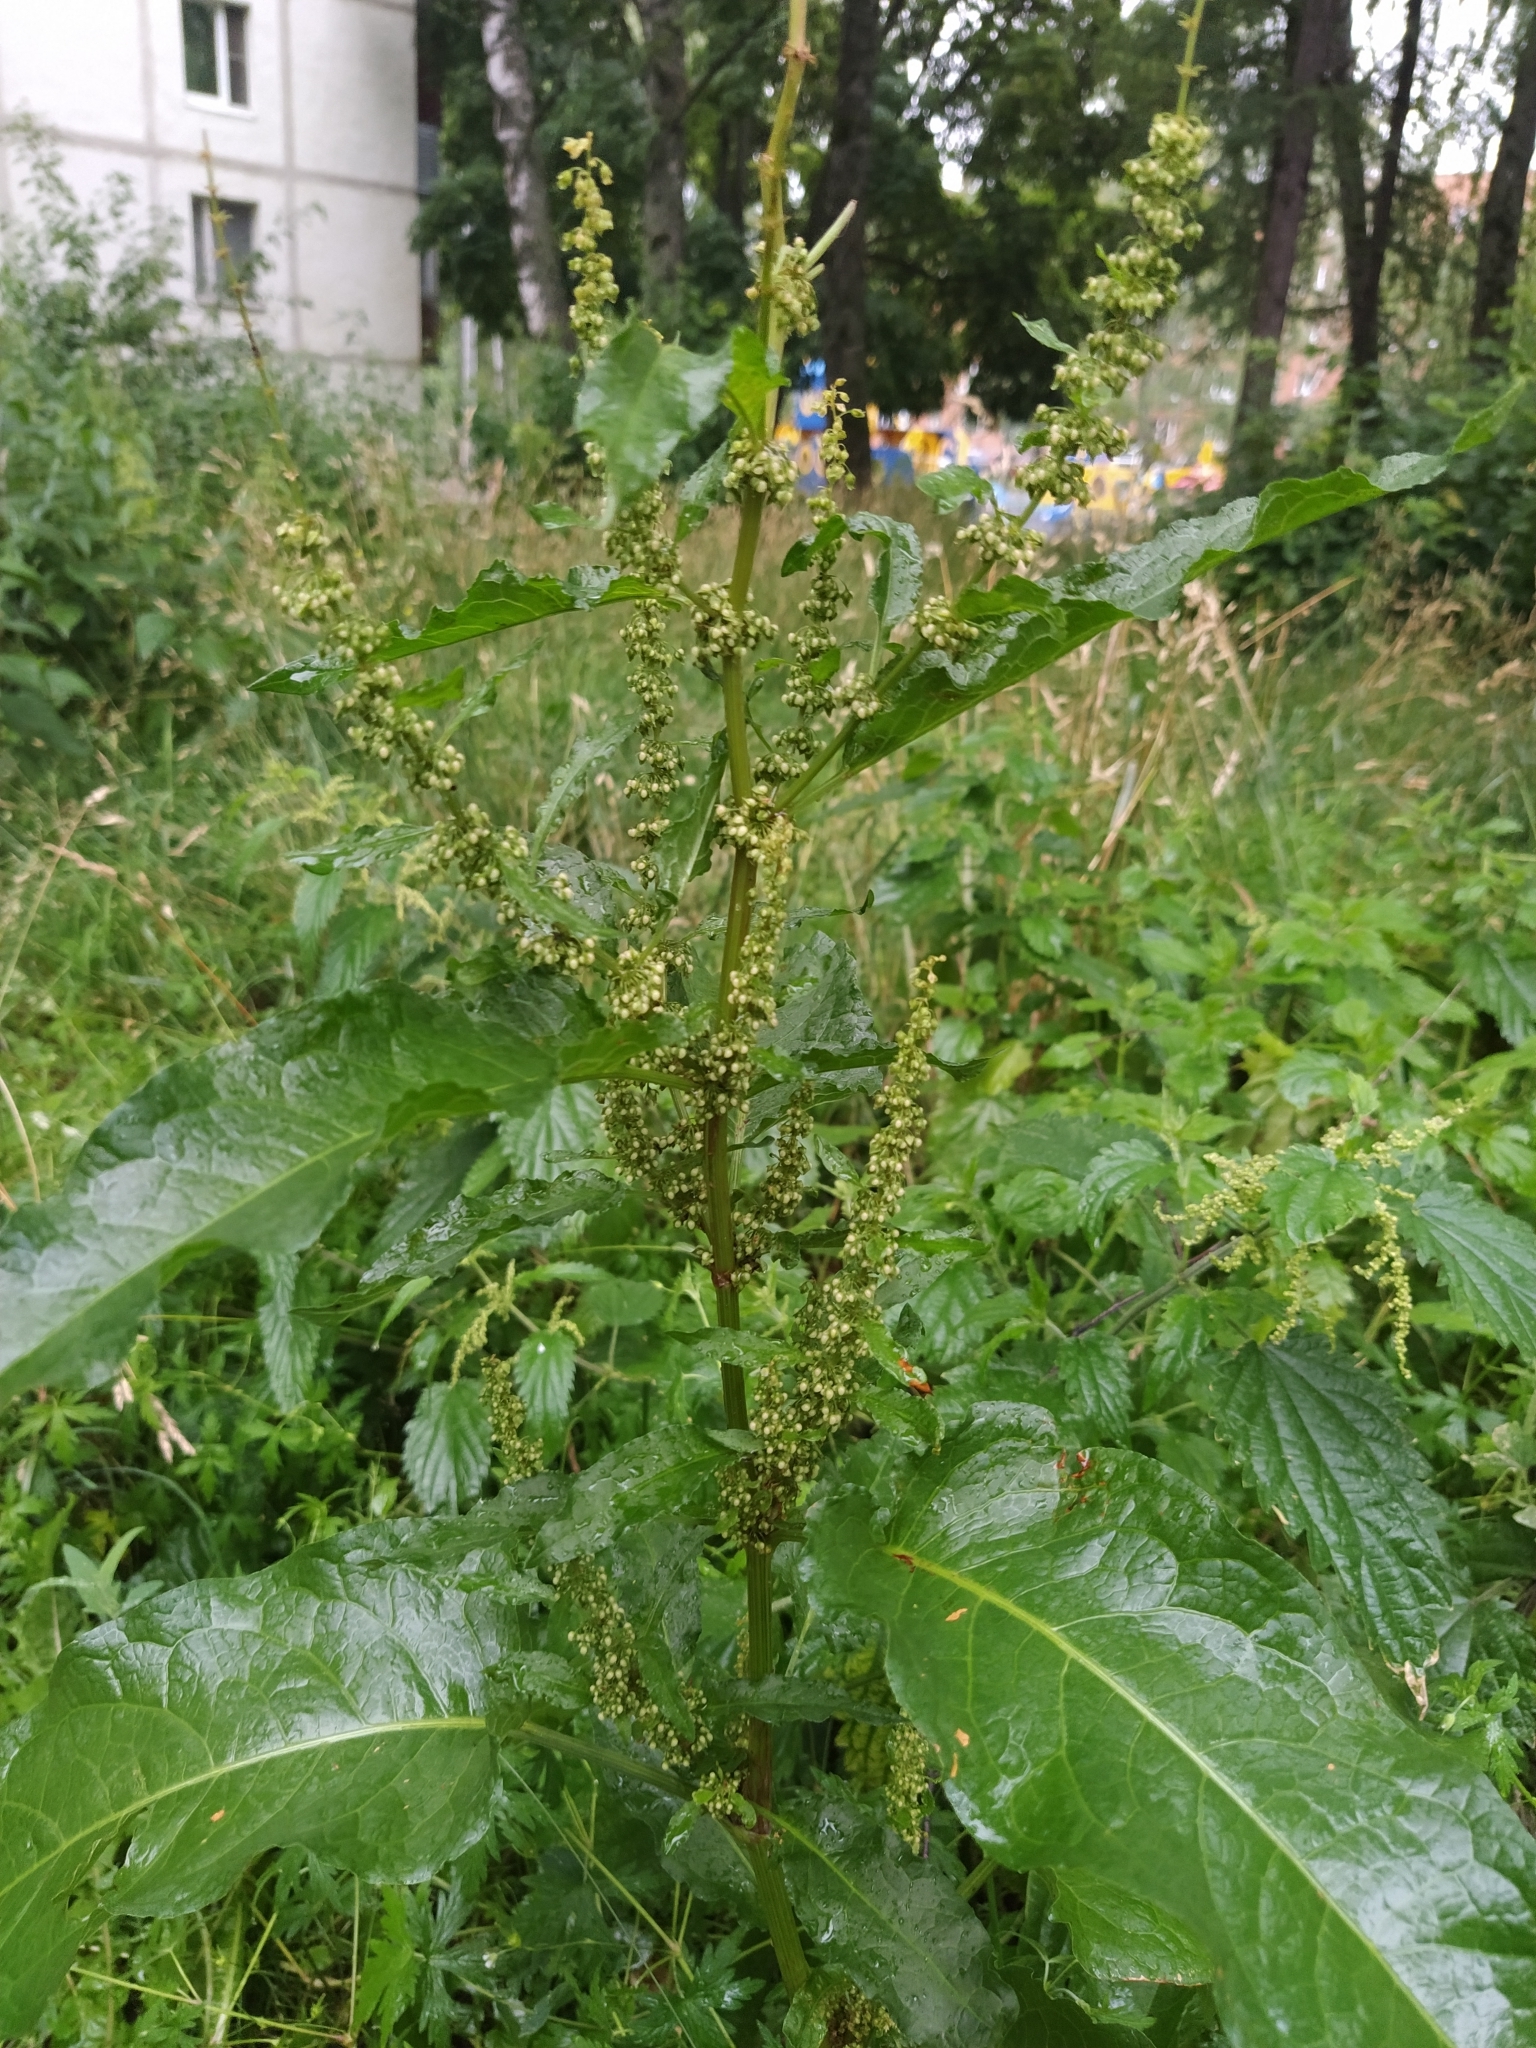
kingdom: Plantae
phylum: Tracheophyta
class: Magnoliopsida
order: Caryophyllales
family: Polygonaceae
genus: Rumex
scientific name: Rumex obtusifolius
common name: Bitter dock
